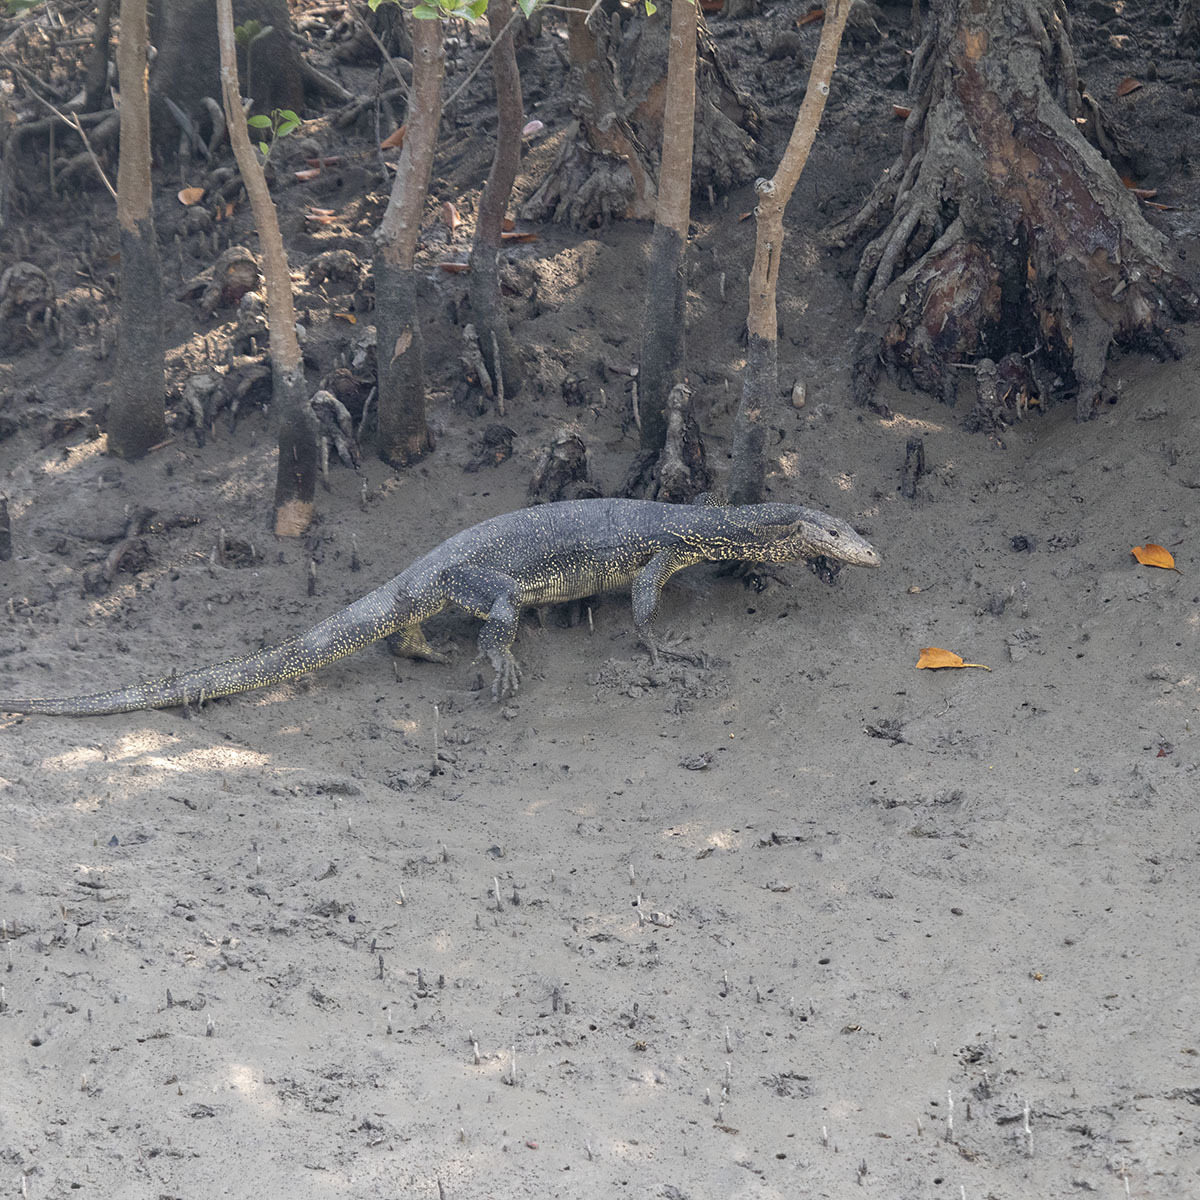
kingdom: Animalia
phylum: Chordata
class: Squamata
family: Varanidae
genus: Varanus
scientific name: Varanus salvator
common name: Common water monitor
